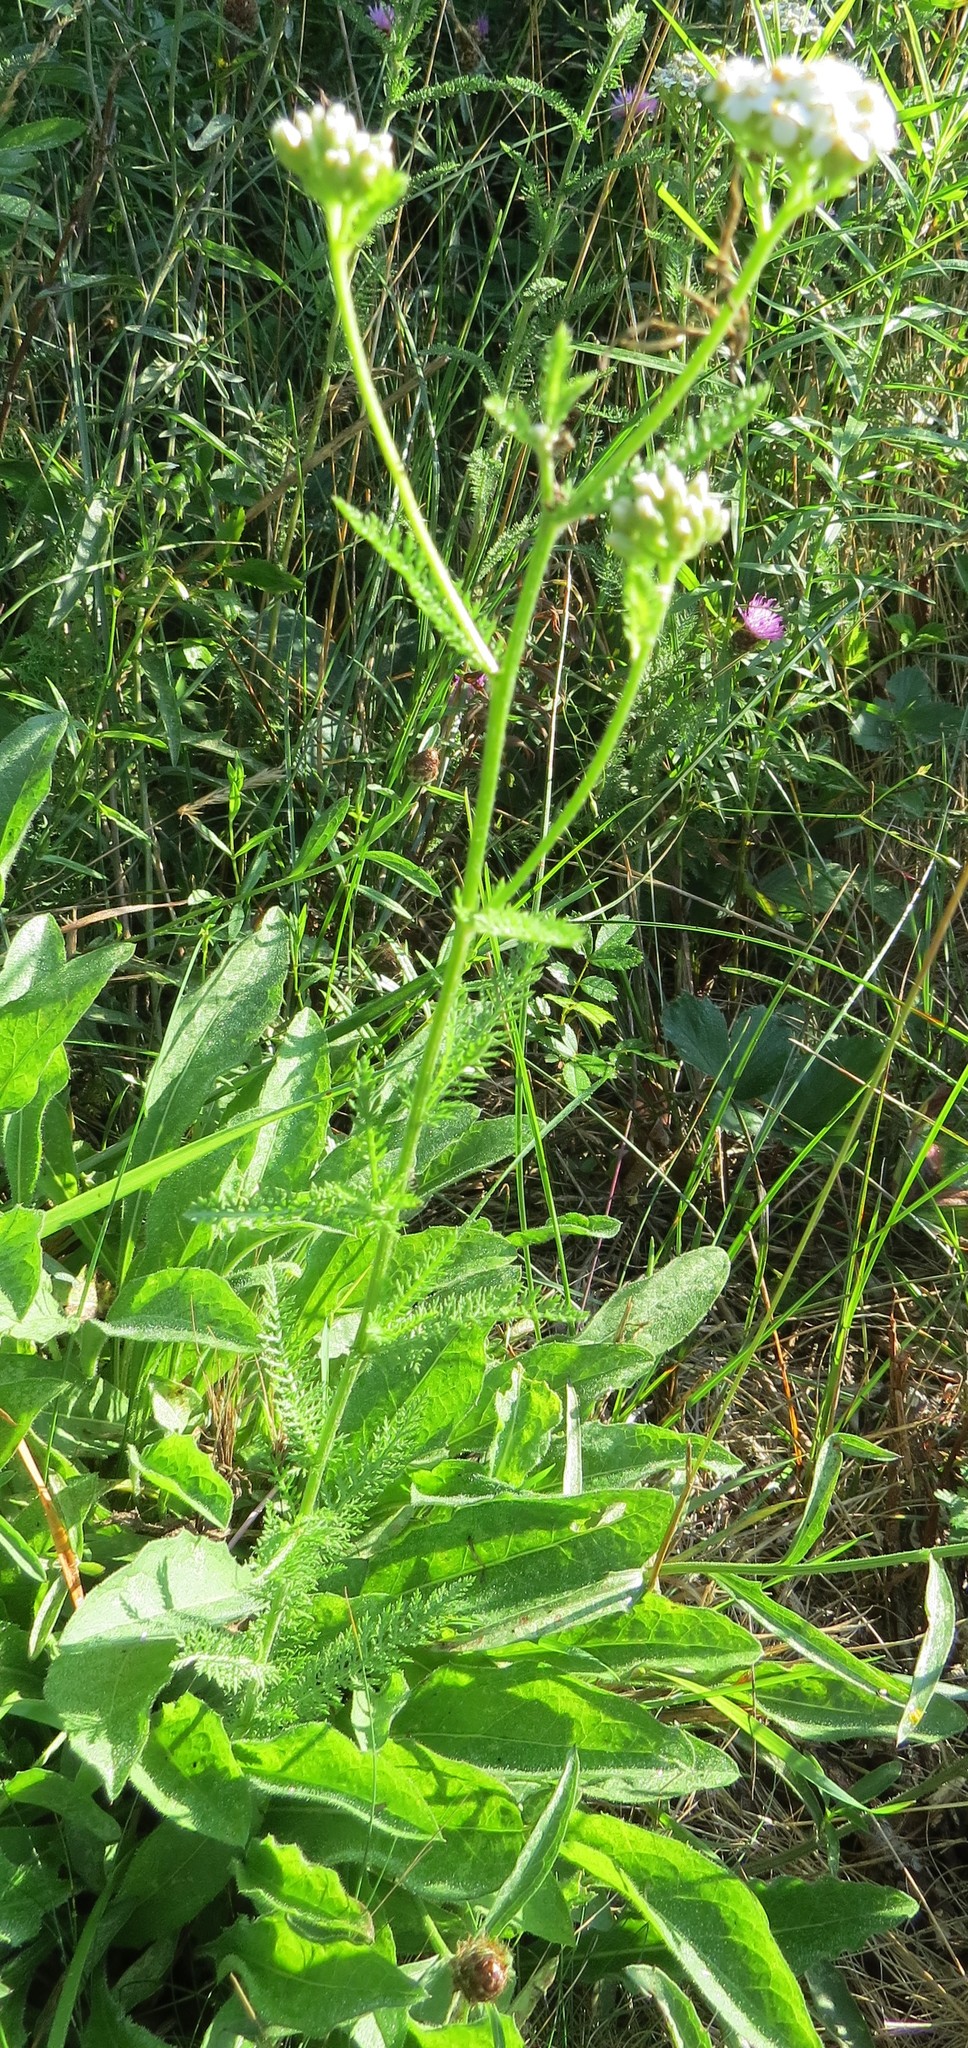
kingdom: Plantae
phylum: Tracheophyta
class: Magnoliopsida
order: Asterales
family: Asteraceae
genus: Achillea
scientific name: Achillea millefolium
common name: Yarrow
